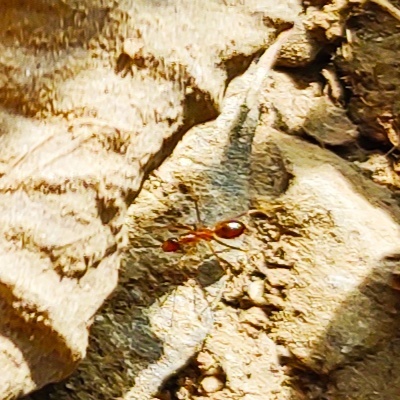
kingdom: Animalia
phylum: Arthropoda
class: Insecta
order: Hymenoptera
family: Formicidae
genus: Anoplolepis
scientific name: Anoplolepis gracilipes
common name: Ant
